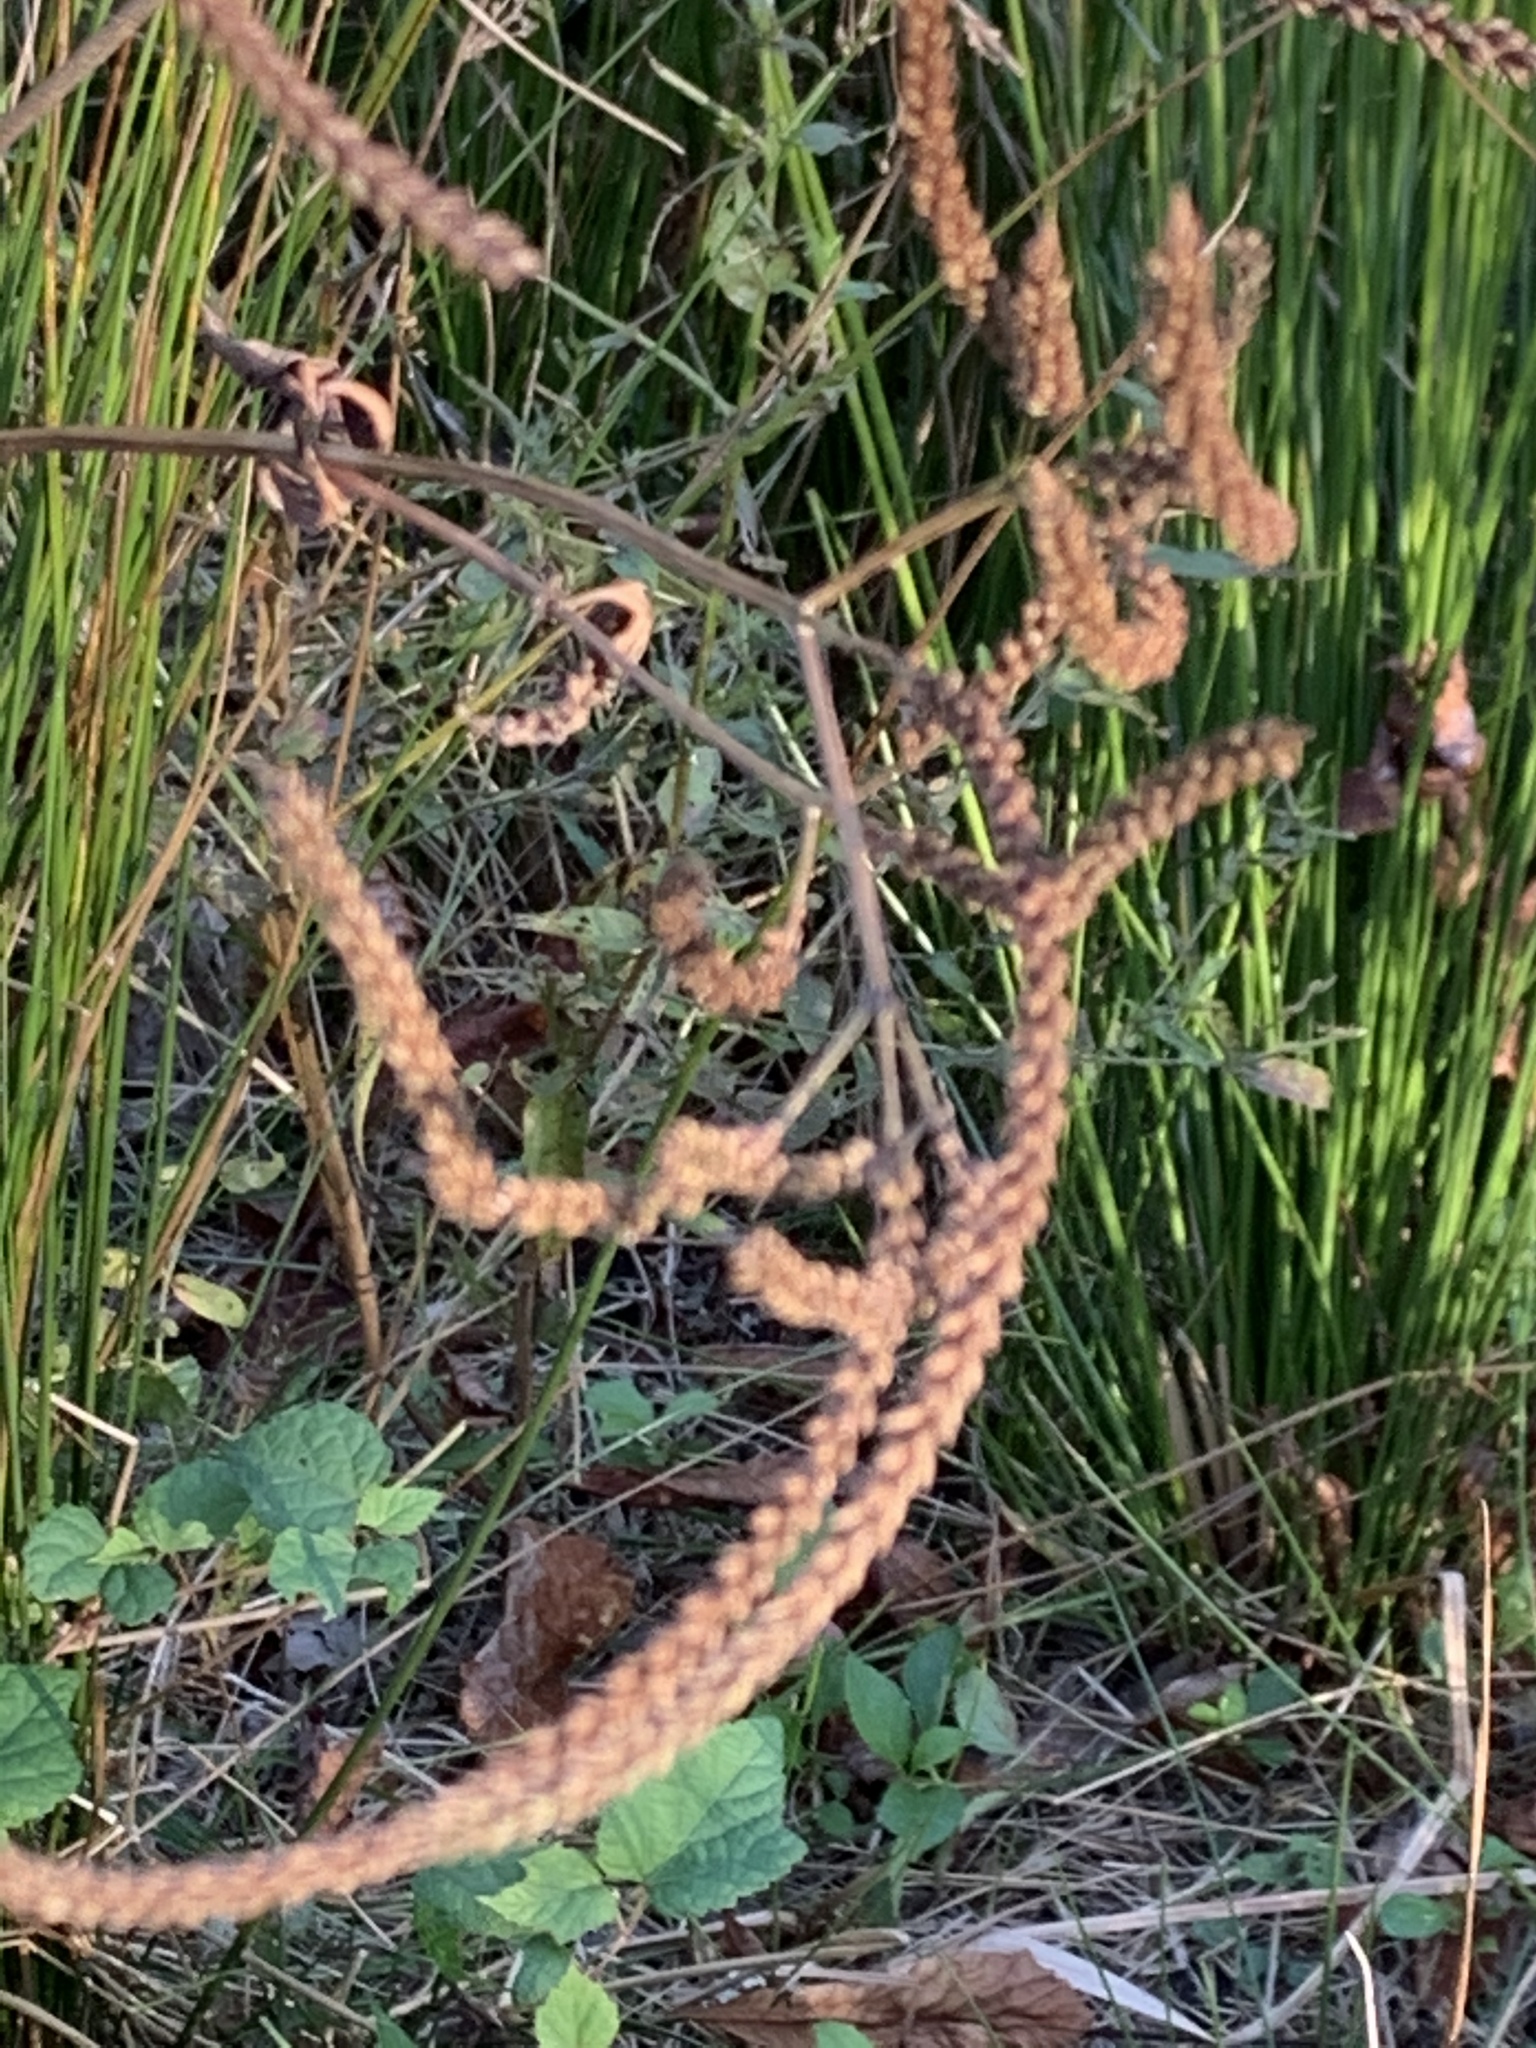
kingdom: Plantae
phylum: Tracheophyta
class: Magnoliopsida
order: Lamiales
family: Verbenaceae
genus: Verbena
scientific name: Verbena hastata
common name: American blue vervain
